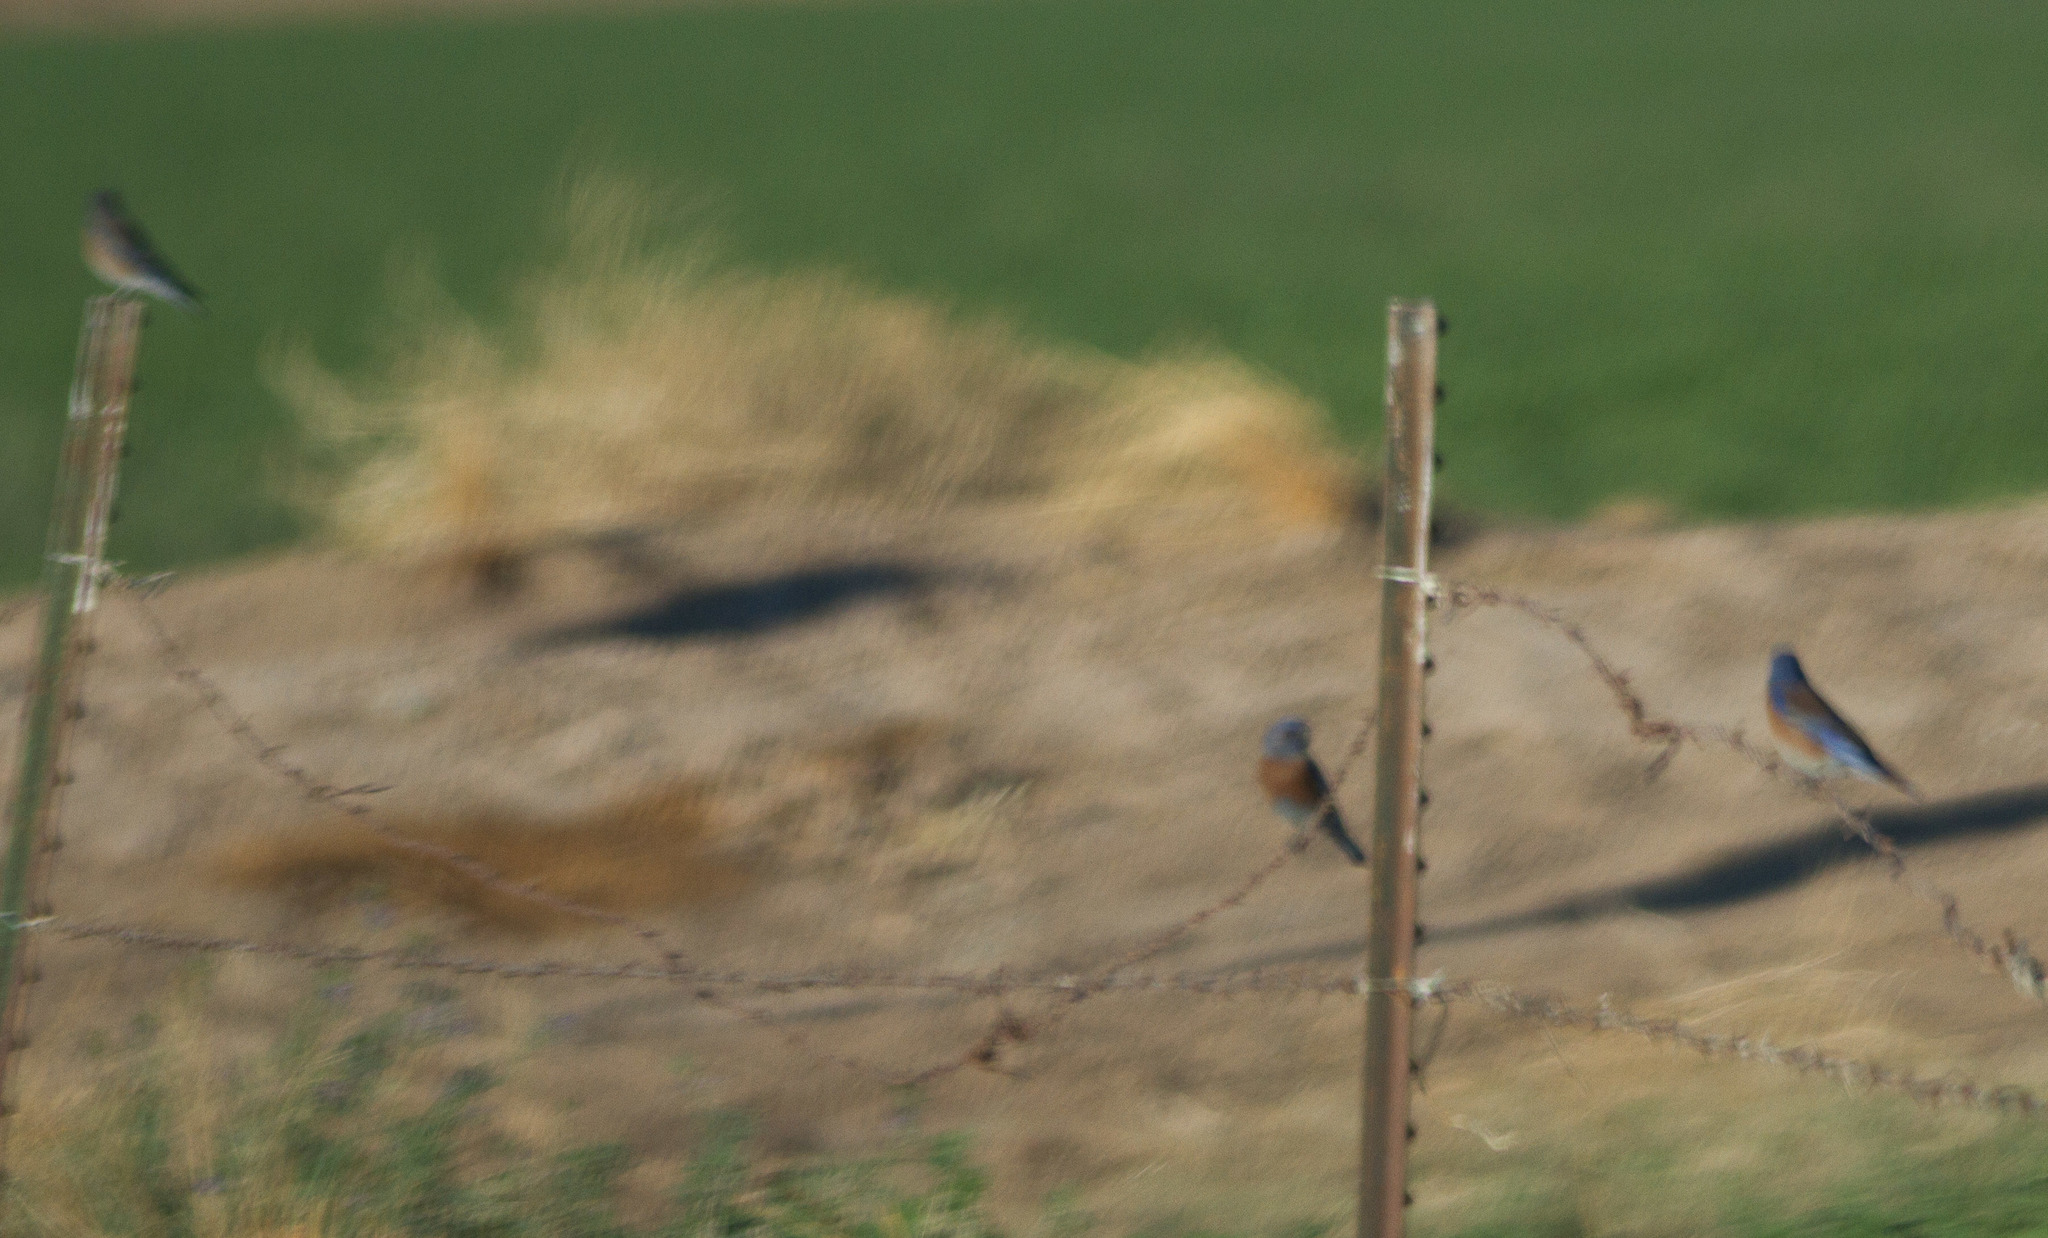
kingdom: Animalia
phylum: Chordata
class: Aves
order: Passeriformes
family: Turdidae
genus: Sialia
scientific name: Sialia mexicana
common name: Western bluebird
